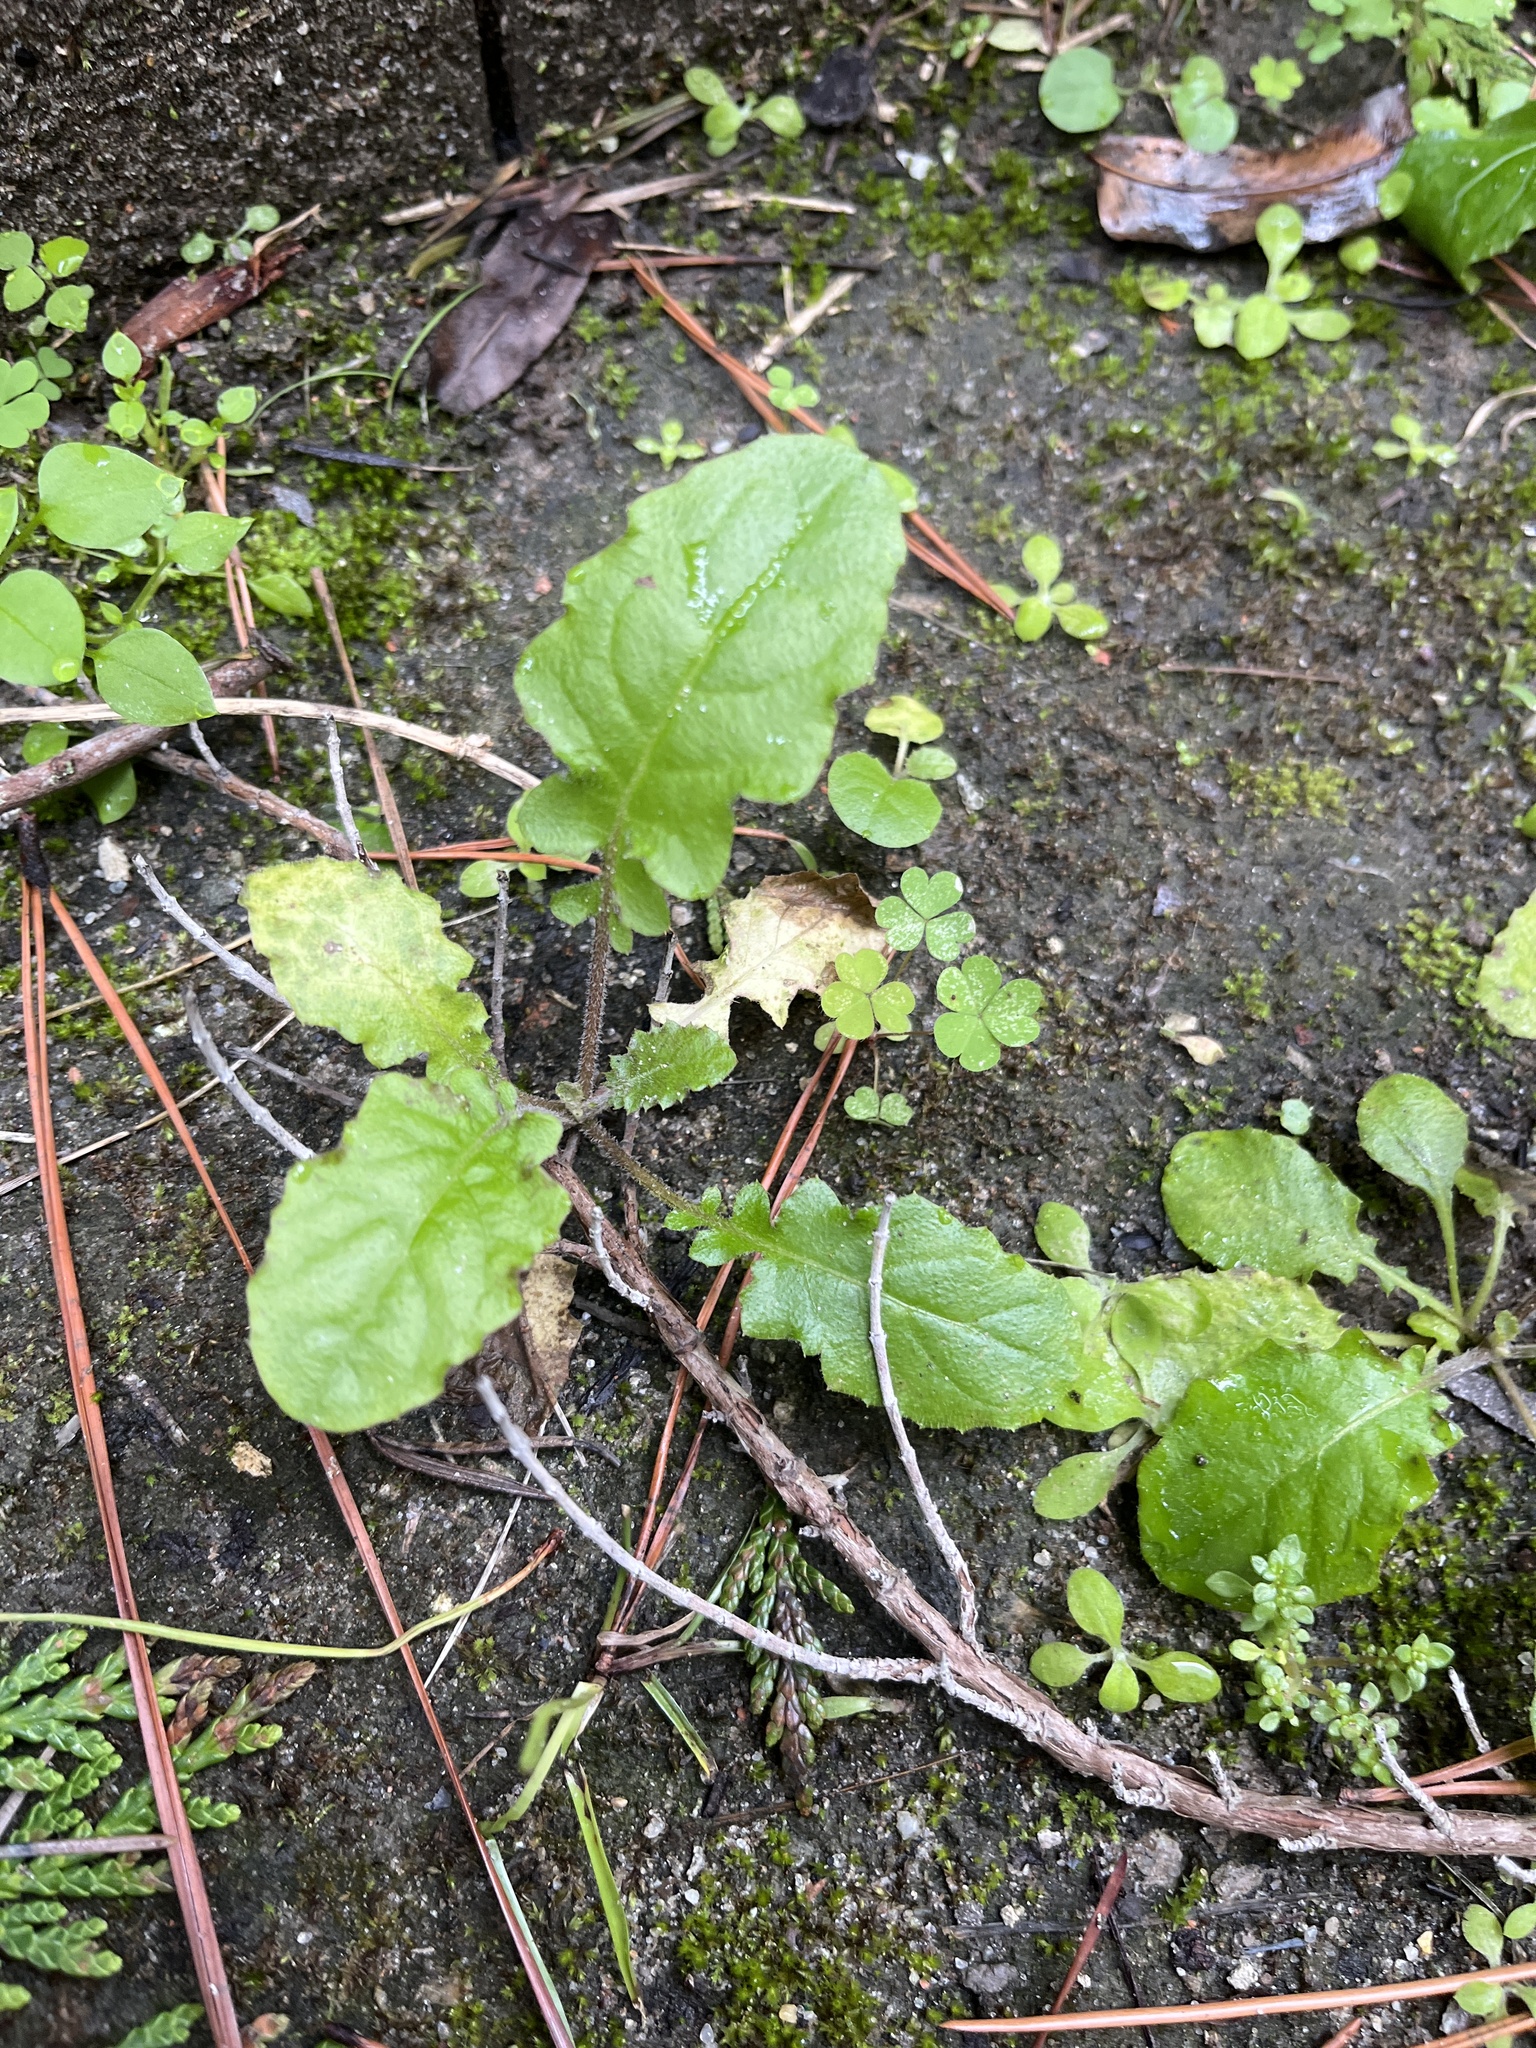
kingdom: Plantae
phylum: Tracheophyta
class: Magnoliopsida
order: Asterales
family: Asteraceae
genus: Youngia
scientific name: Youngia japonica
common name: Oriental false hawksbeard
